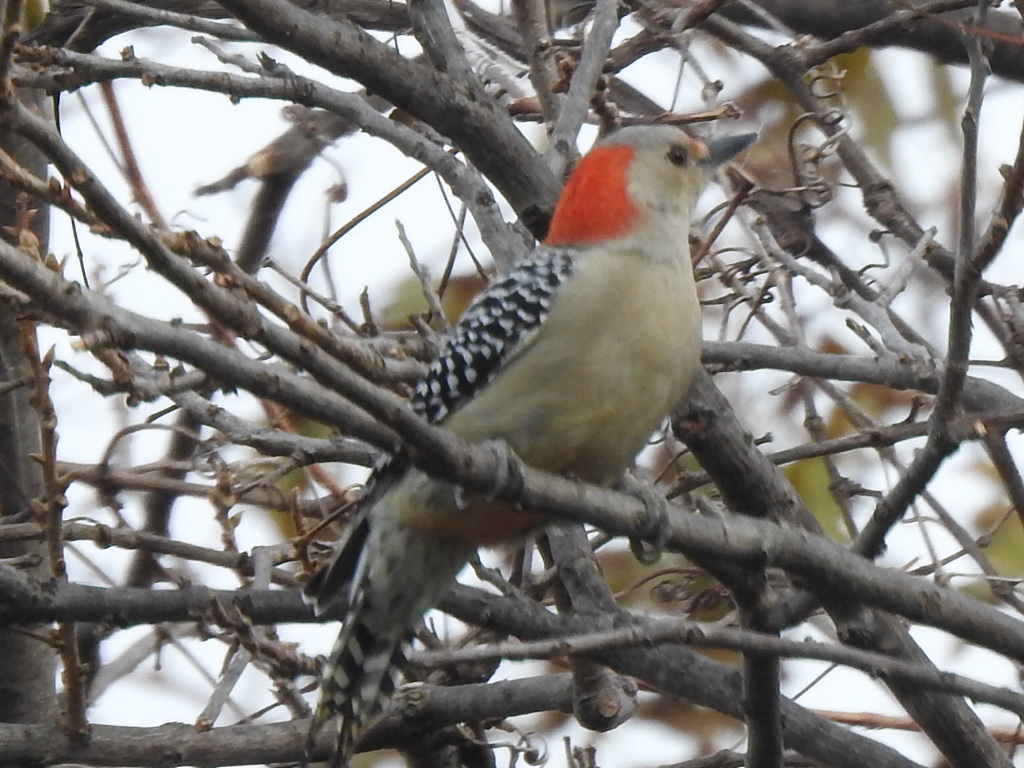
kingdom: Animalia
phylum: Chordata
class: Aves
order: Piciformes
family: Picidae
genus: Melanerpes
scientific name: Melanerpes carolinus
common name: Red-bellied woodpecker
